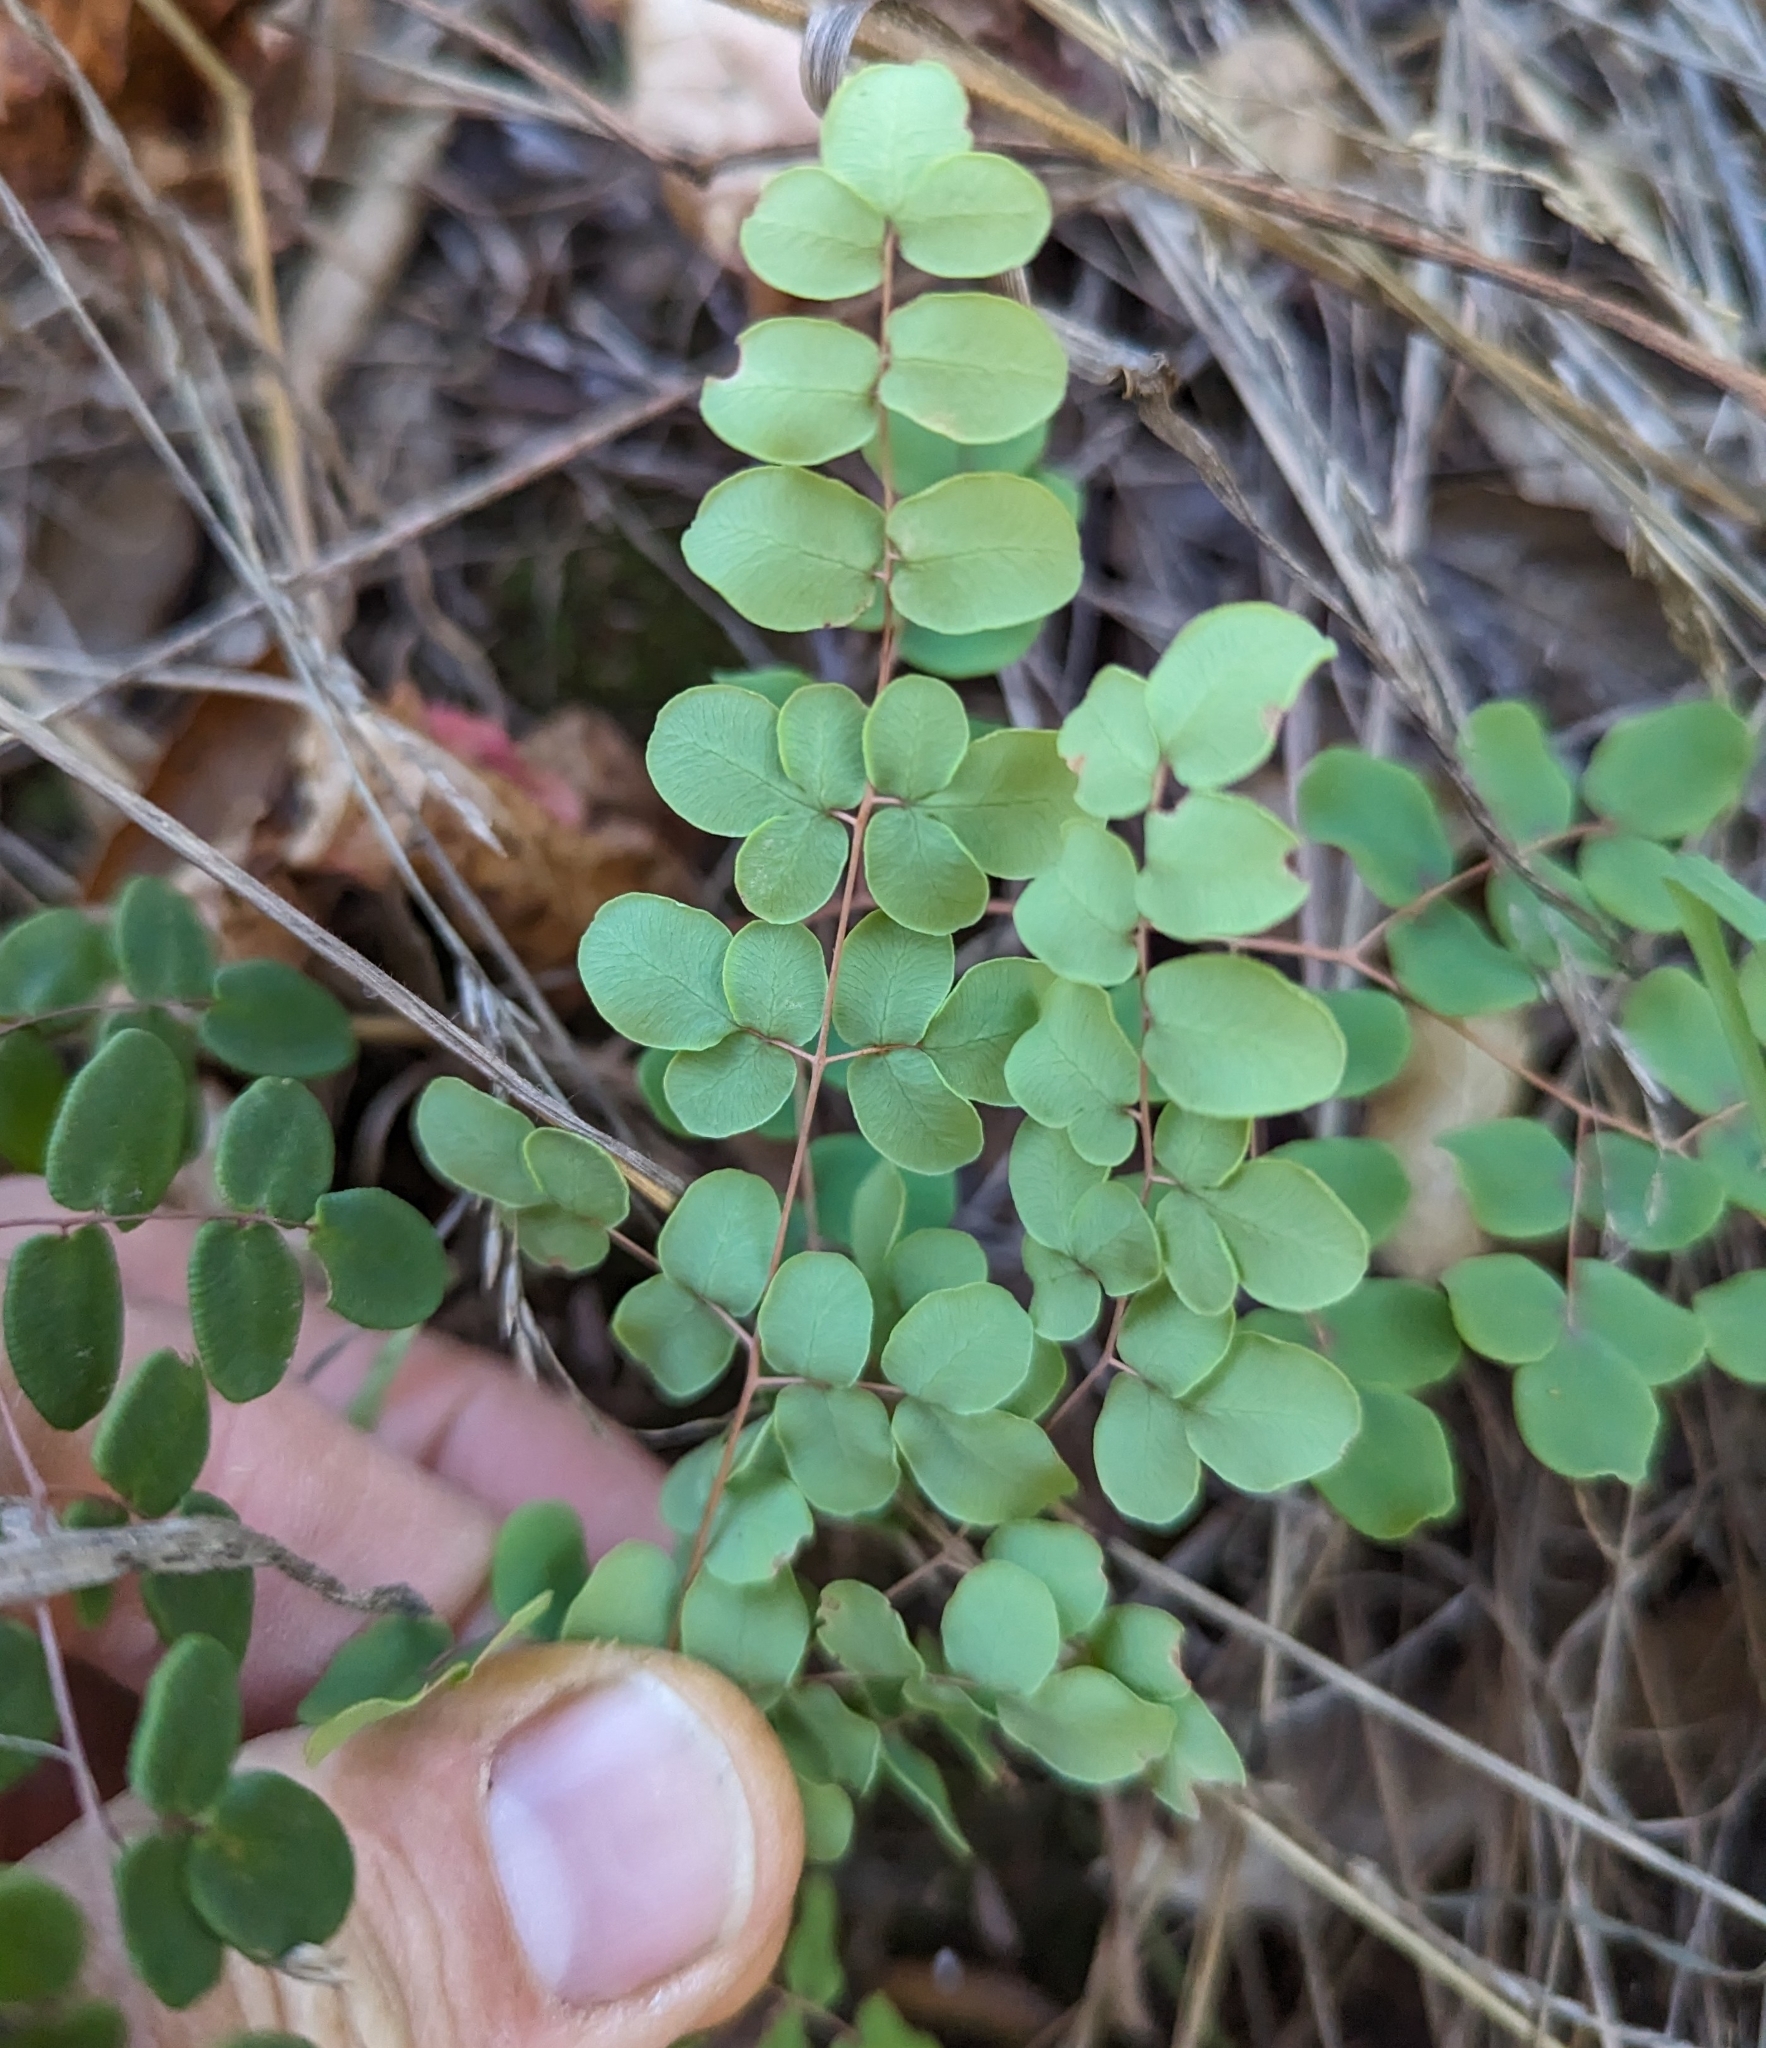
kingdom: Plantae
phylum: Tracheophyta
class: Polypodiopsida
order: Polypodiales
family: Pteridaceae
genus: Pellaea
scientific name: Pellaea andromedifolia
